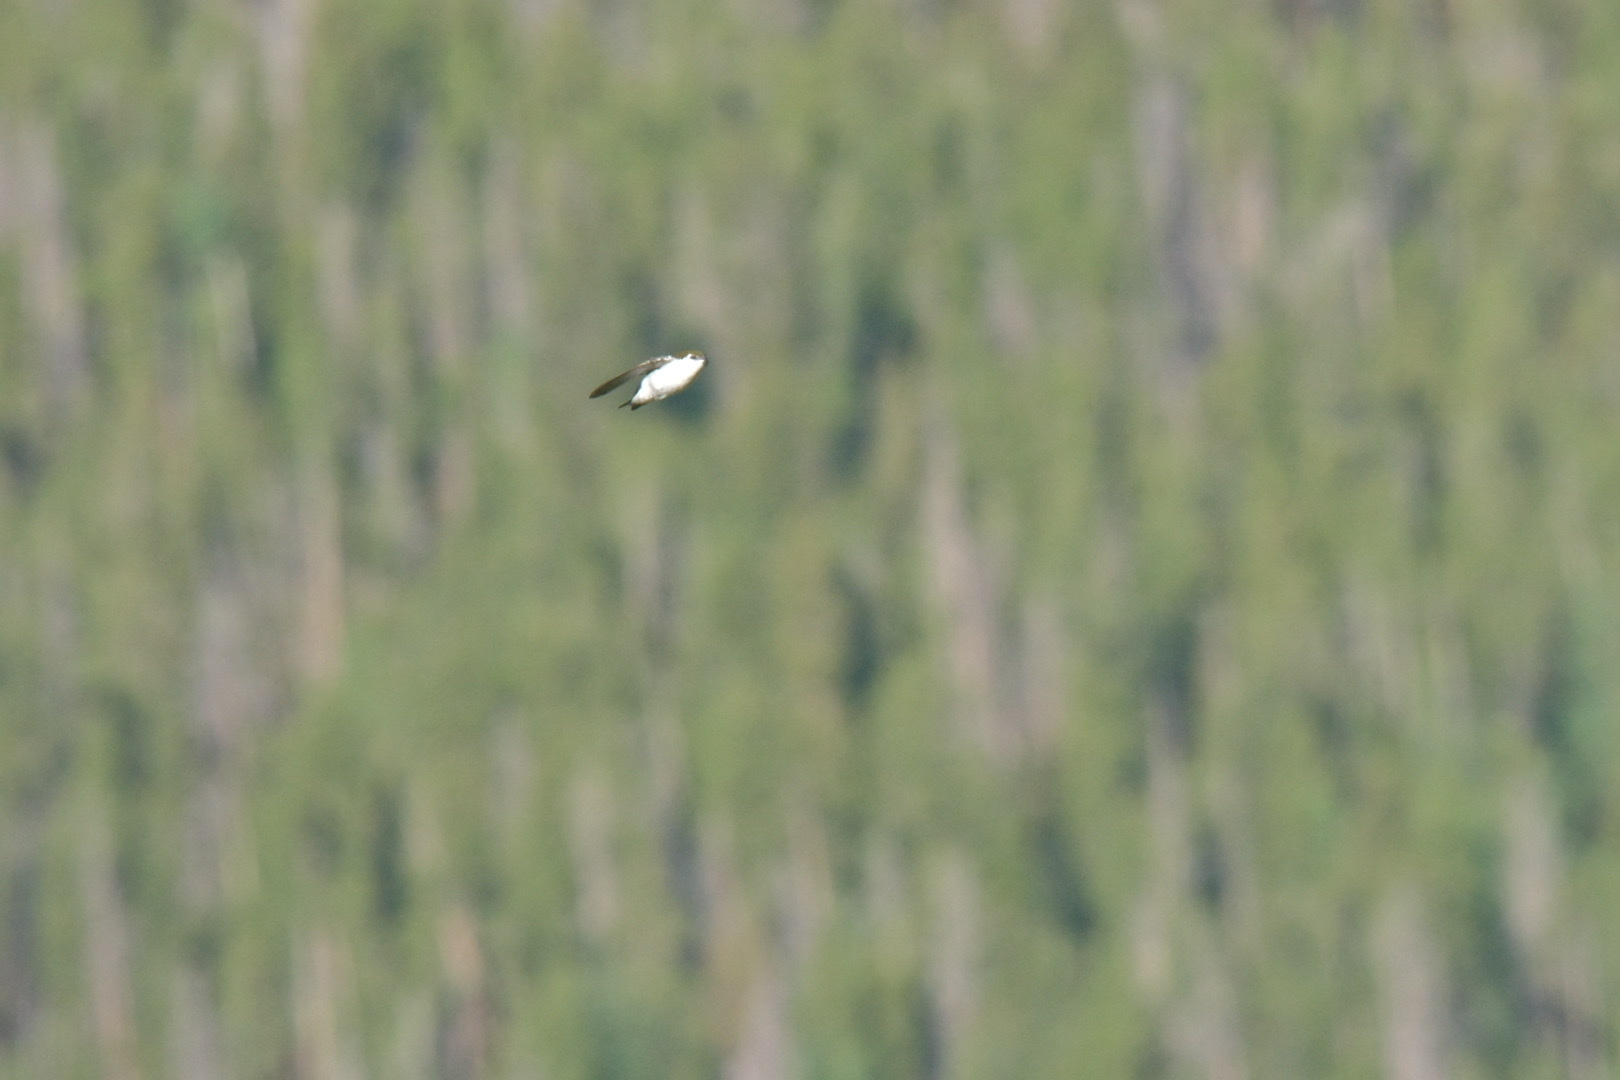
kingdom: Animalia
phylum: Chordata
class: Aves
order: Passeriformes
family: Hirundinidae
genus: Tachycineta
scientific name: Tachycineta thalassina
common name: Violet-green swallow
